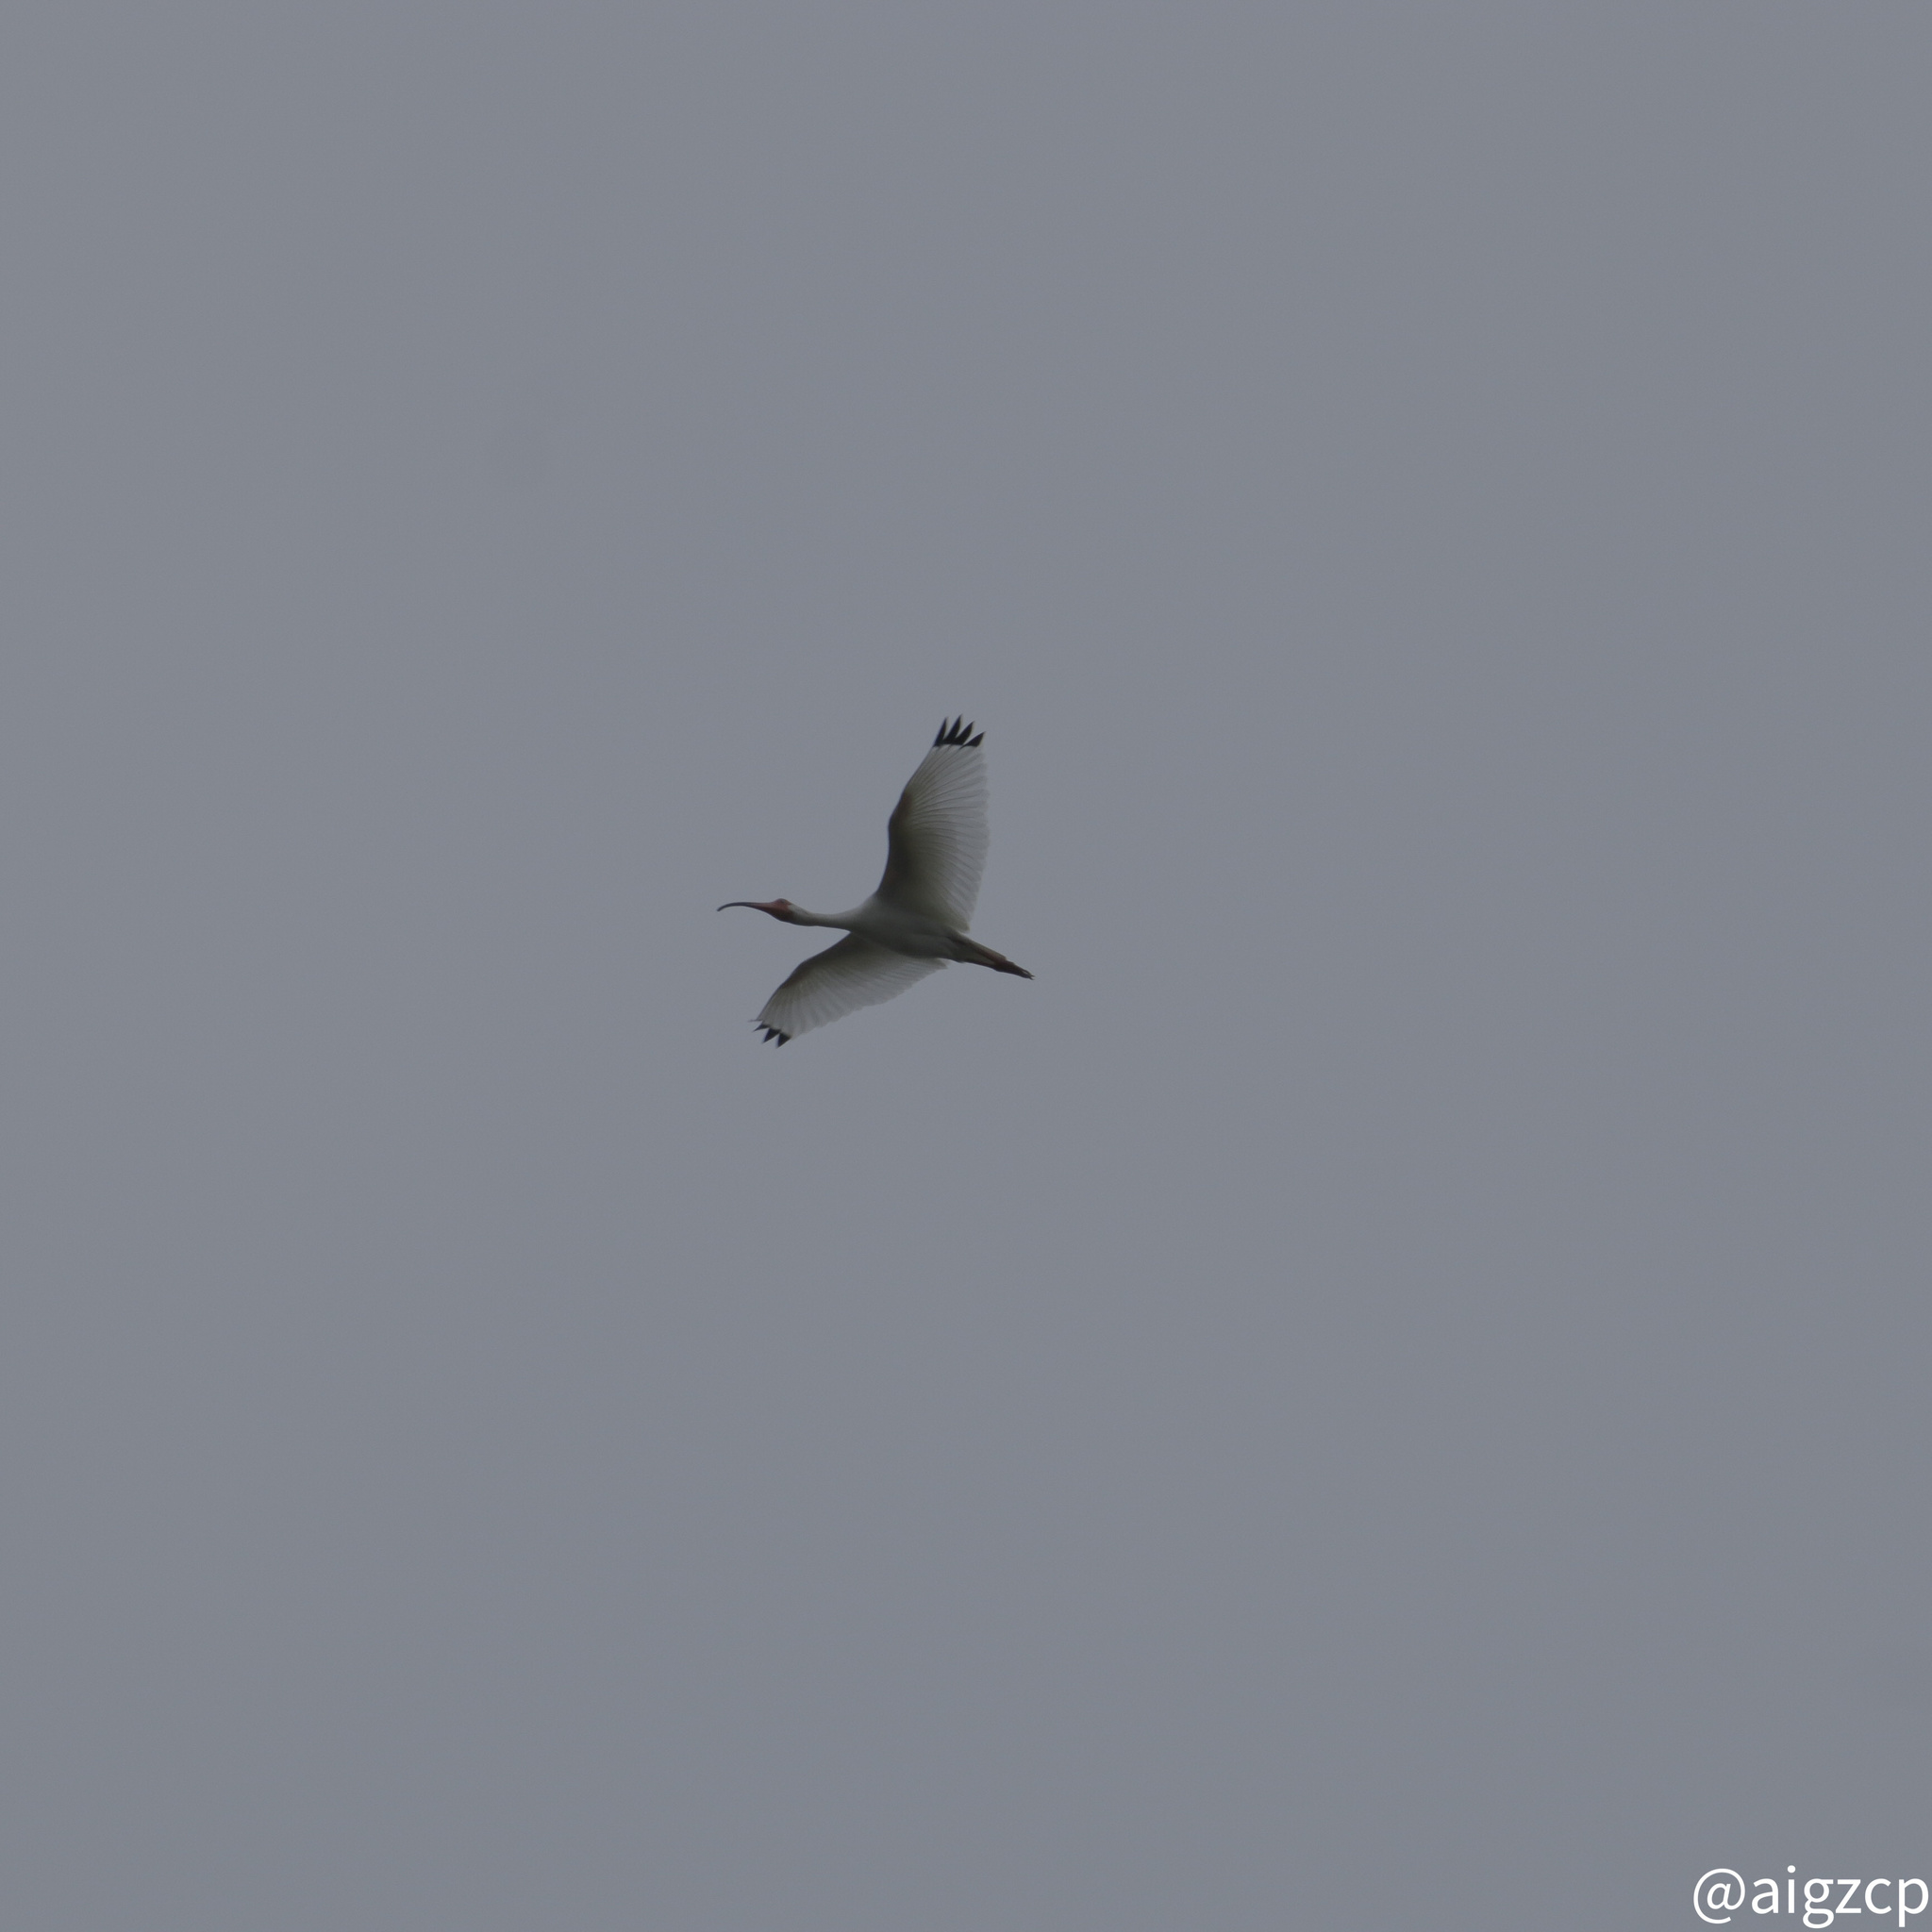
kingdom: Animalia
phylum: Chordata
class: Aves
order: Pelecaniformes
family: Threskiornithidae
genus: Eudocimus
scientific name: Eudocimus albus
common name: White ibis
